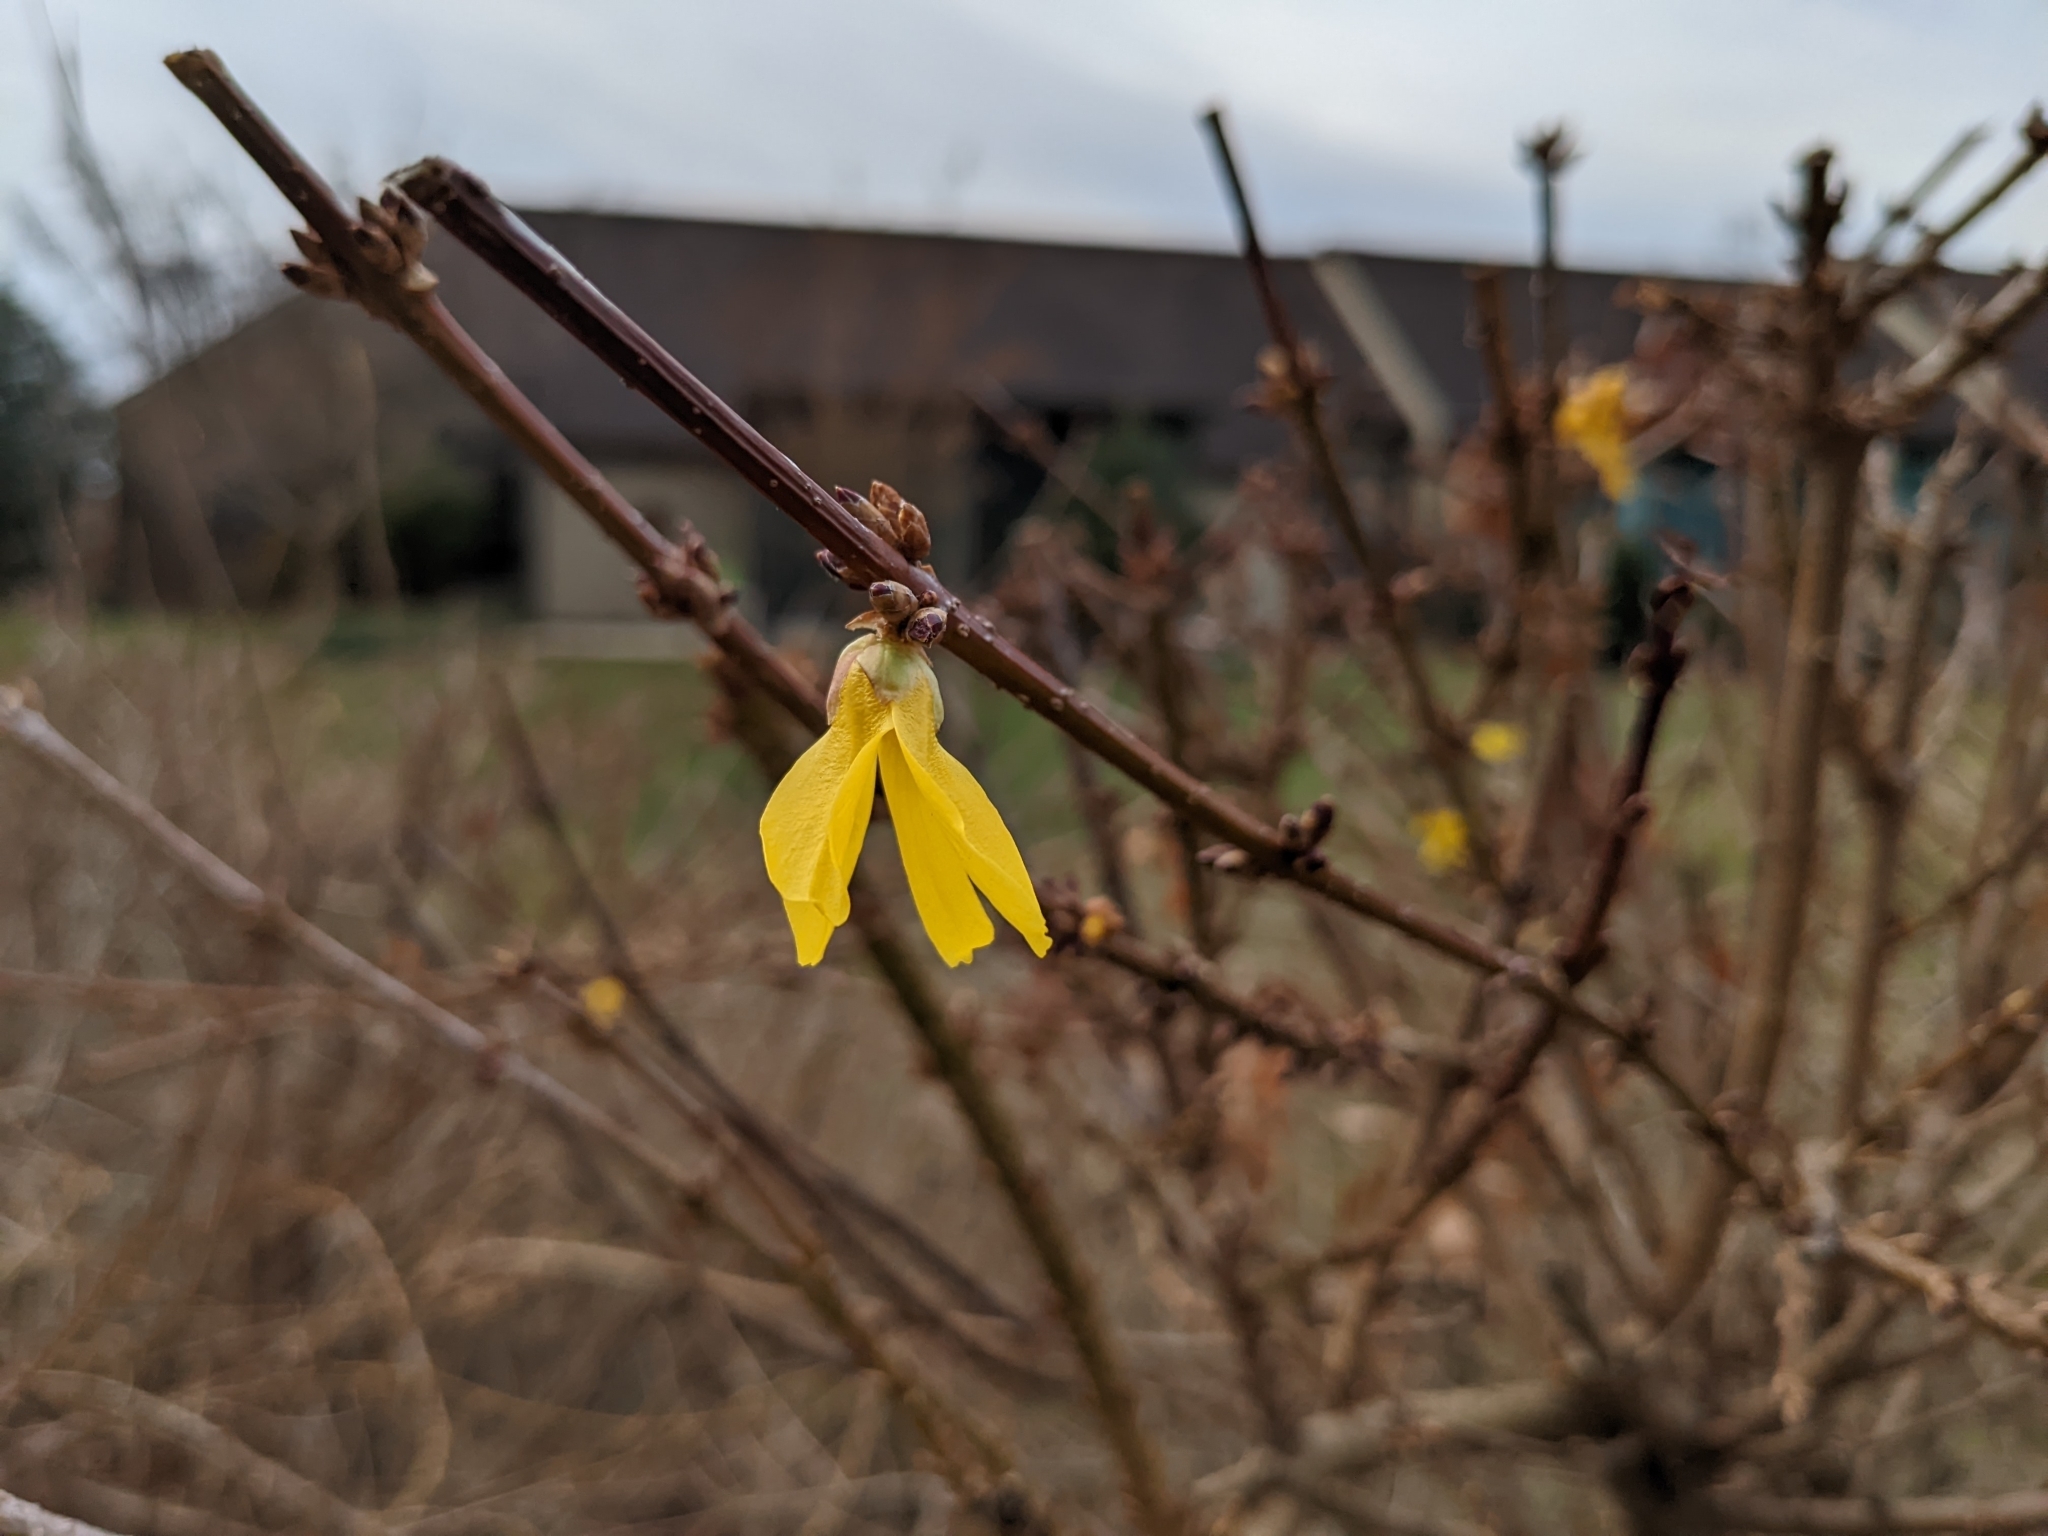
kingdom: Plantae
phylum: Tracheophyta
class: Magnoliopsida
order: Lamiales
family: Oleaceae
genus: Forsythia
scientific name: Forsythia intermedia
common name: Forsythia
